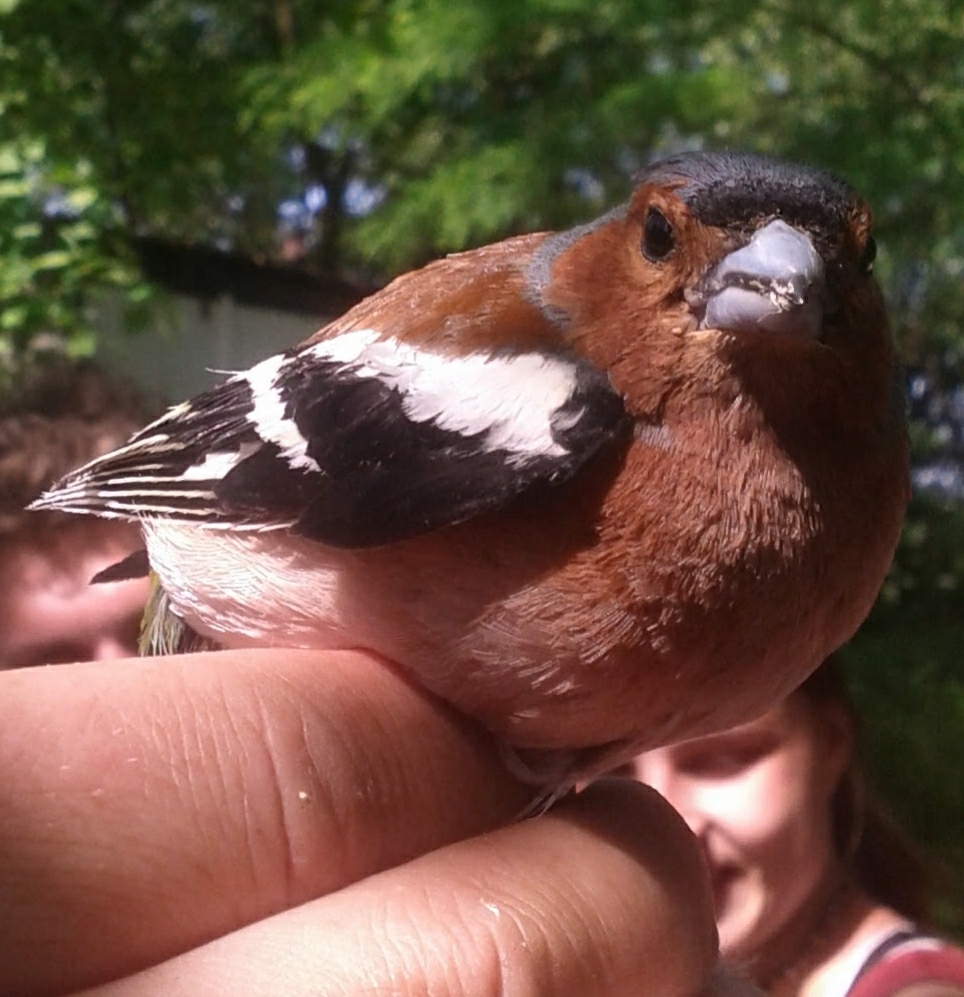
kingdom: Animalia
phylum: Chordata
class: Aves
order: Passeriformes
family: Fringillidae
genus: Fringilla
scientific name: Fringilla coelebs
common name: Common chaffinch
